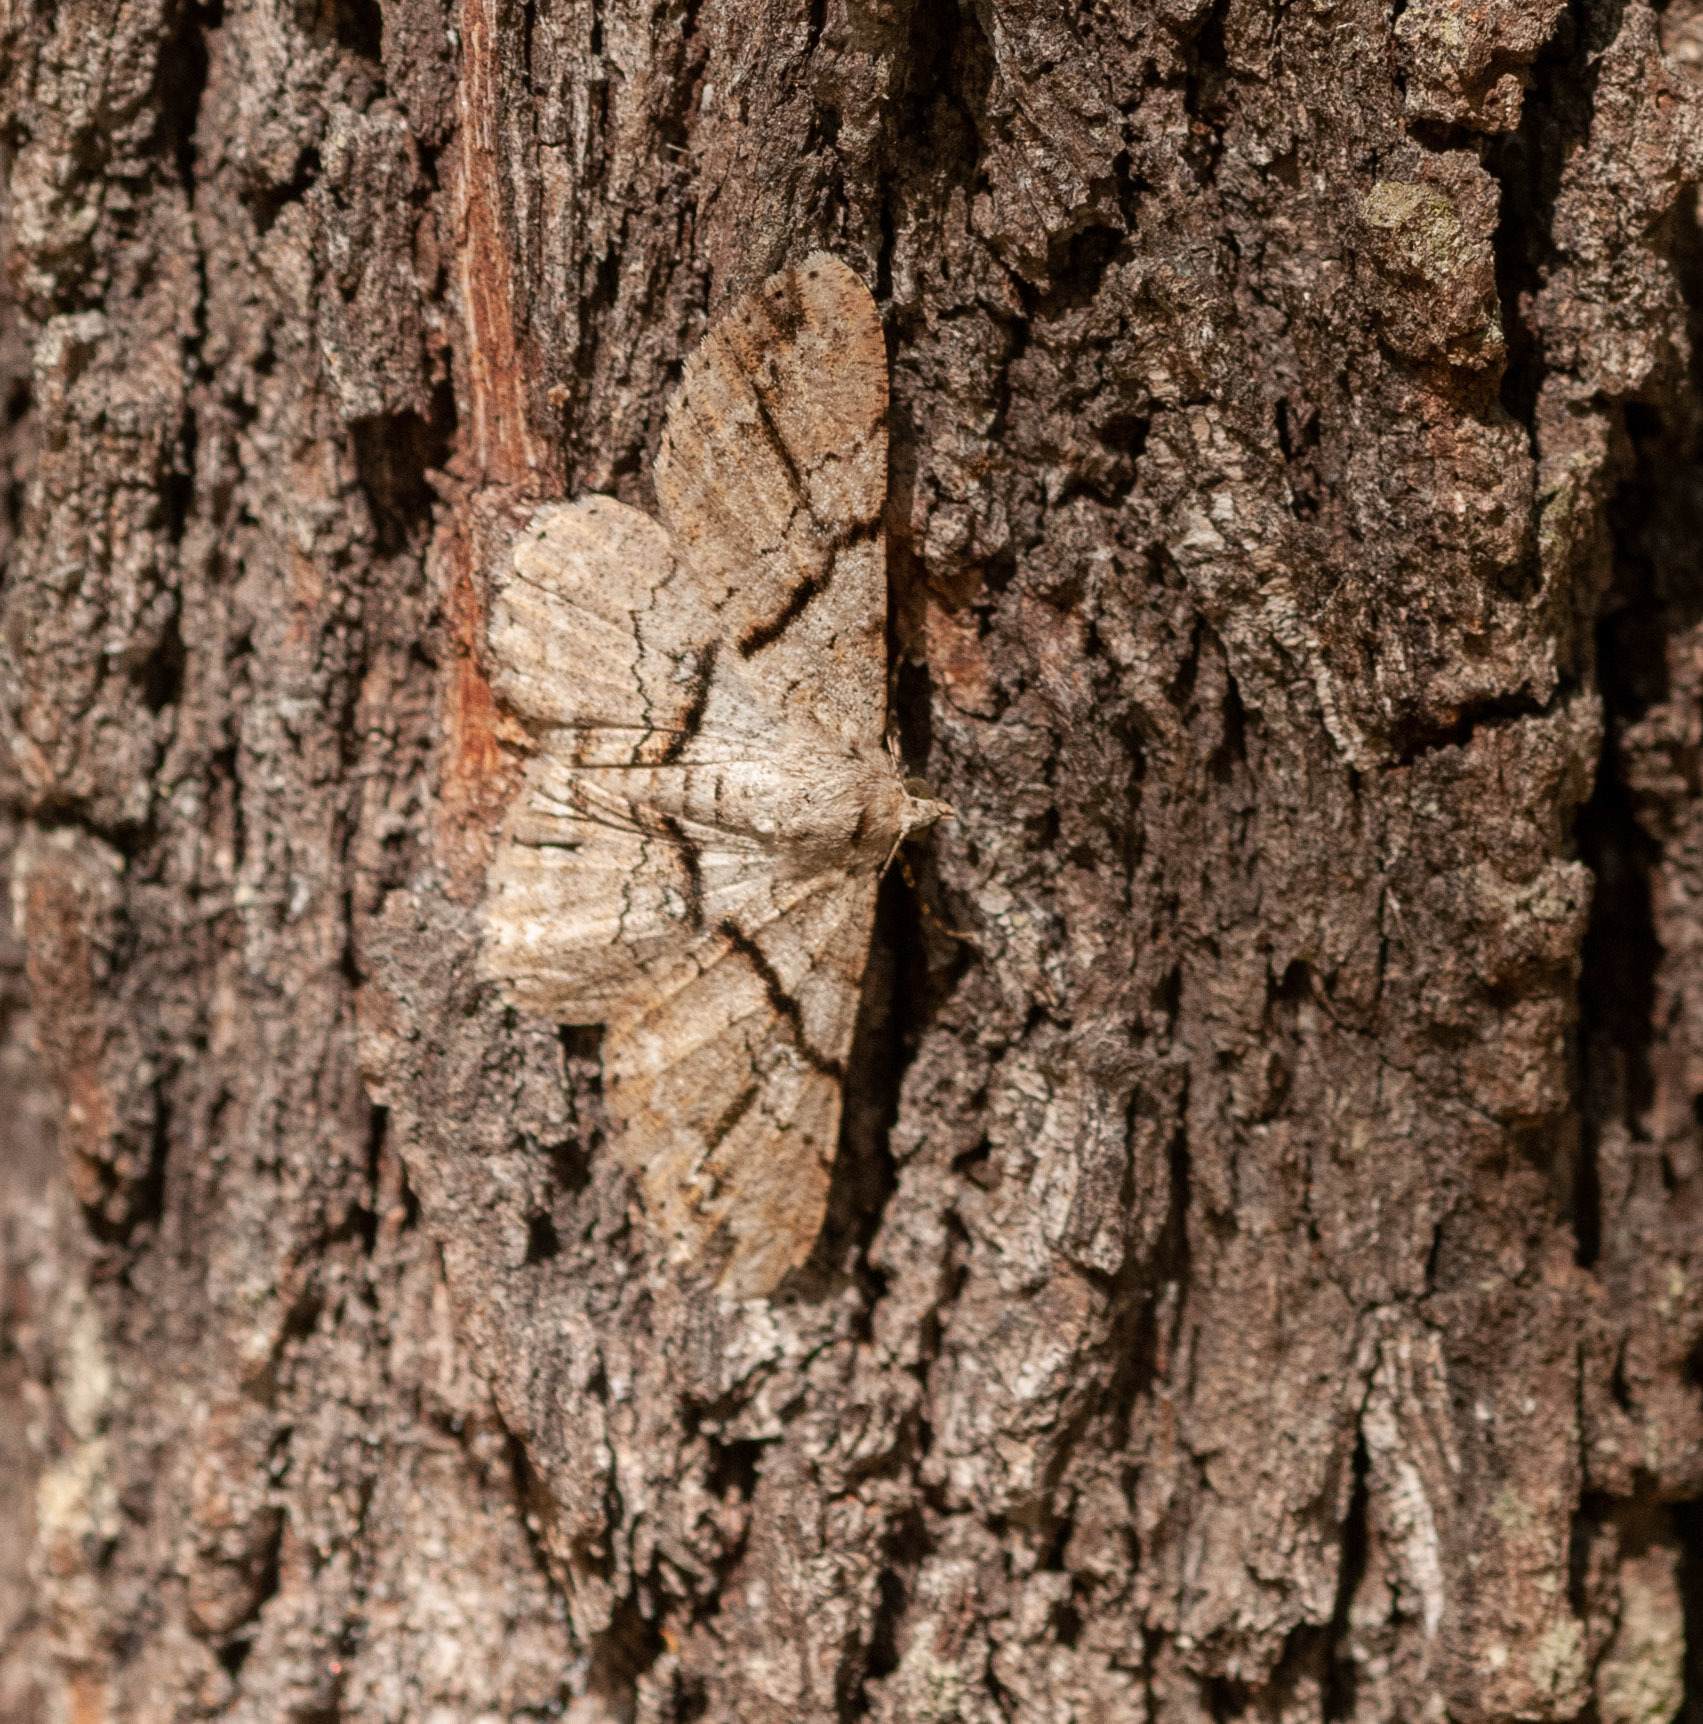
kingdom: Animalia
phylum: Arthropoda
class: Insecta
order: Lepidoptera
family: Geometridae
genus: Cleora
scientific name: Cleora repetita
